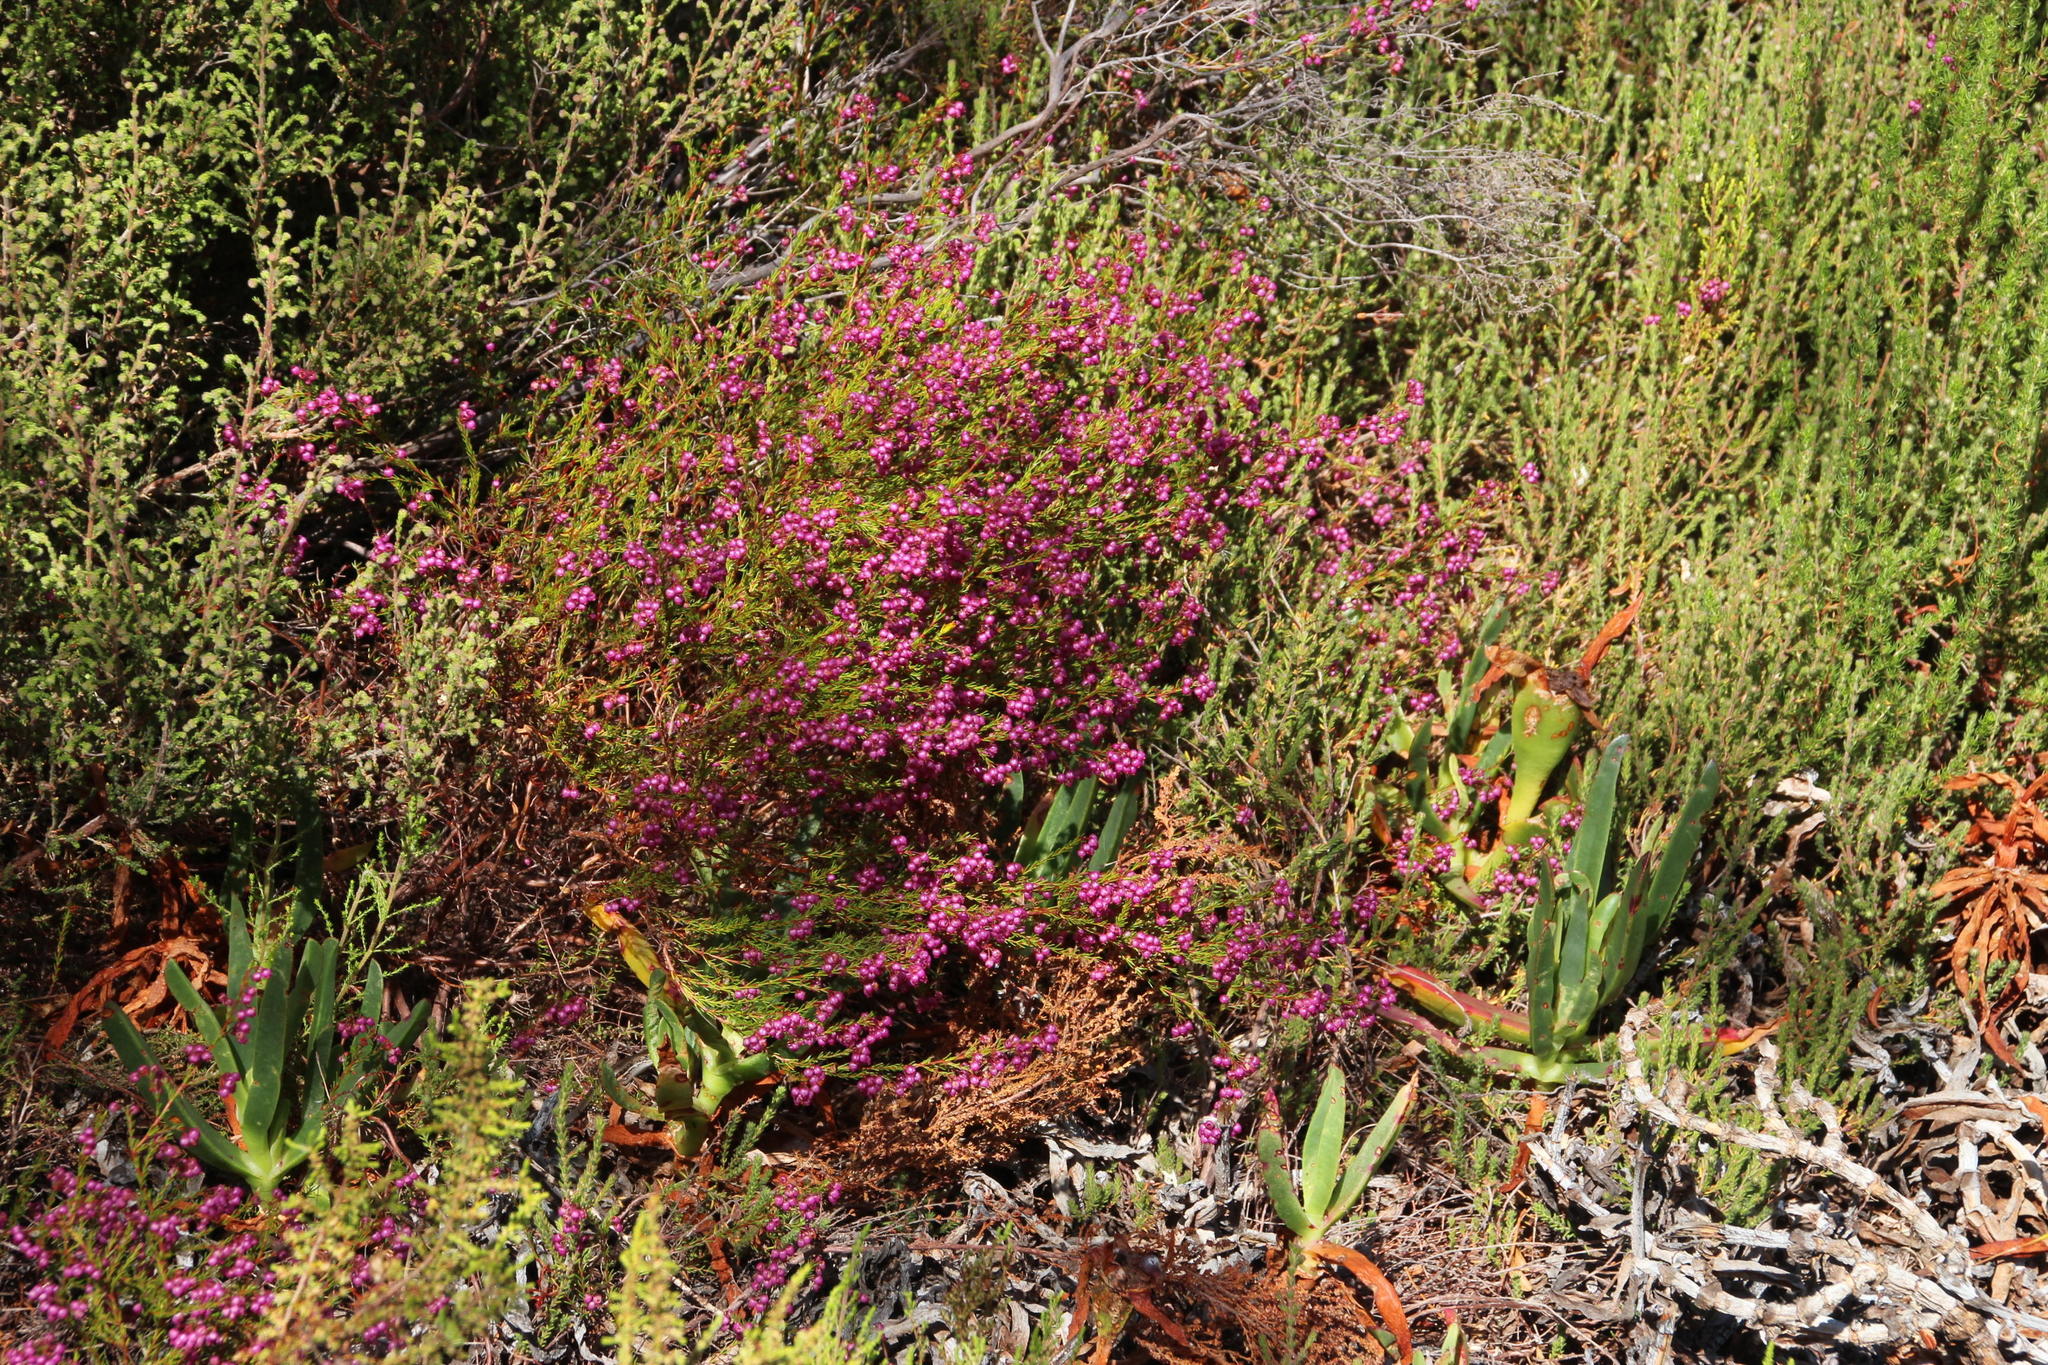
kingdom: Plantae
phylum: Tracheophyta
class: Magnoliopsida
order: Ericales
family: Ericaceae
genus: Erica
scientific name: Erica multumbellifera
